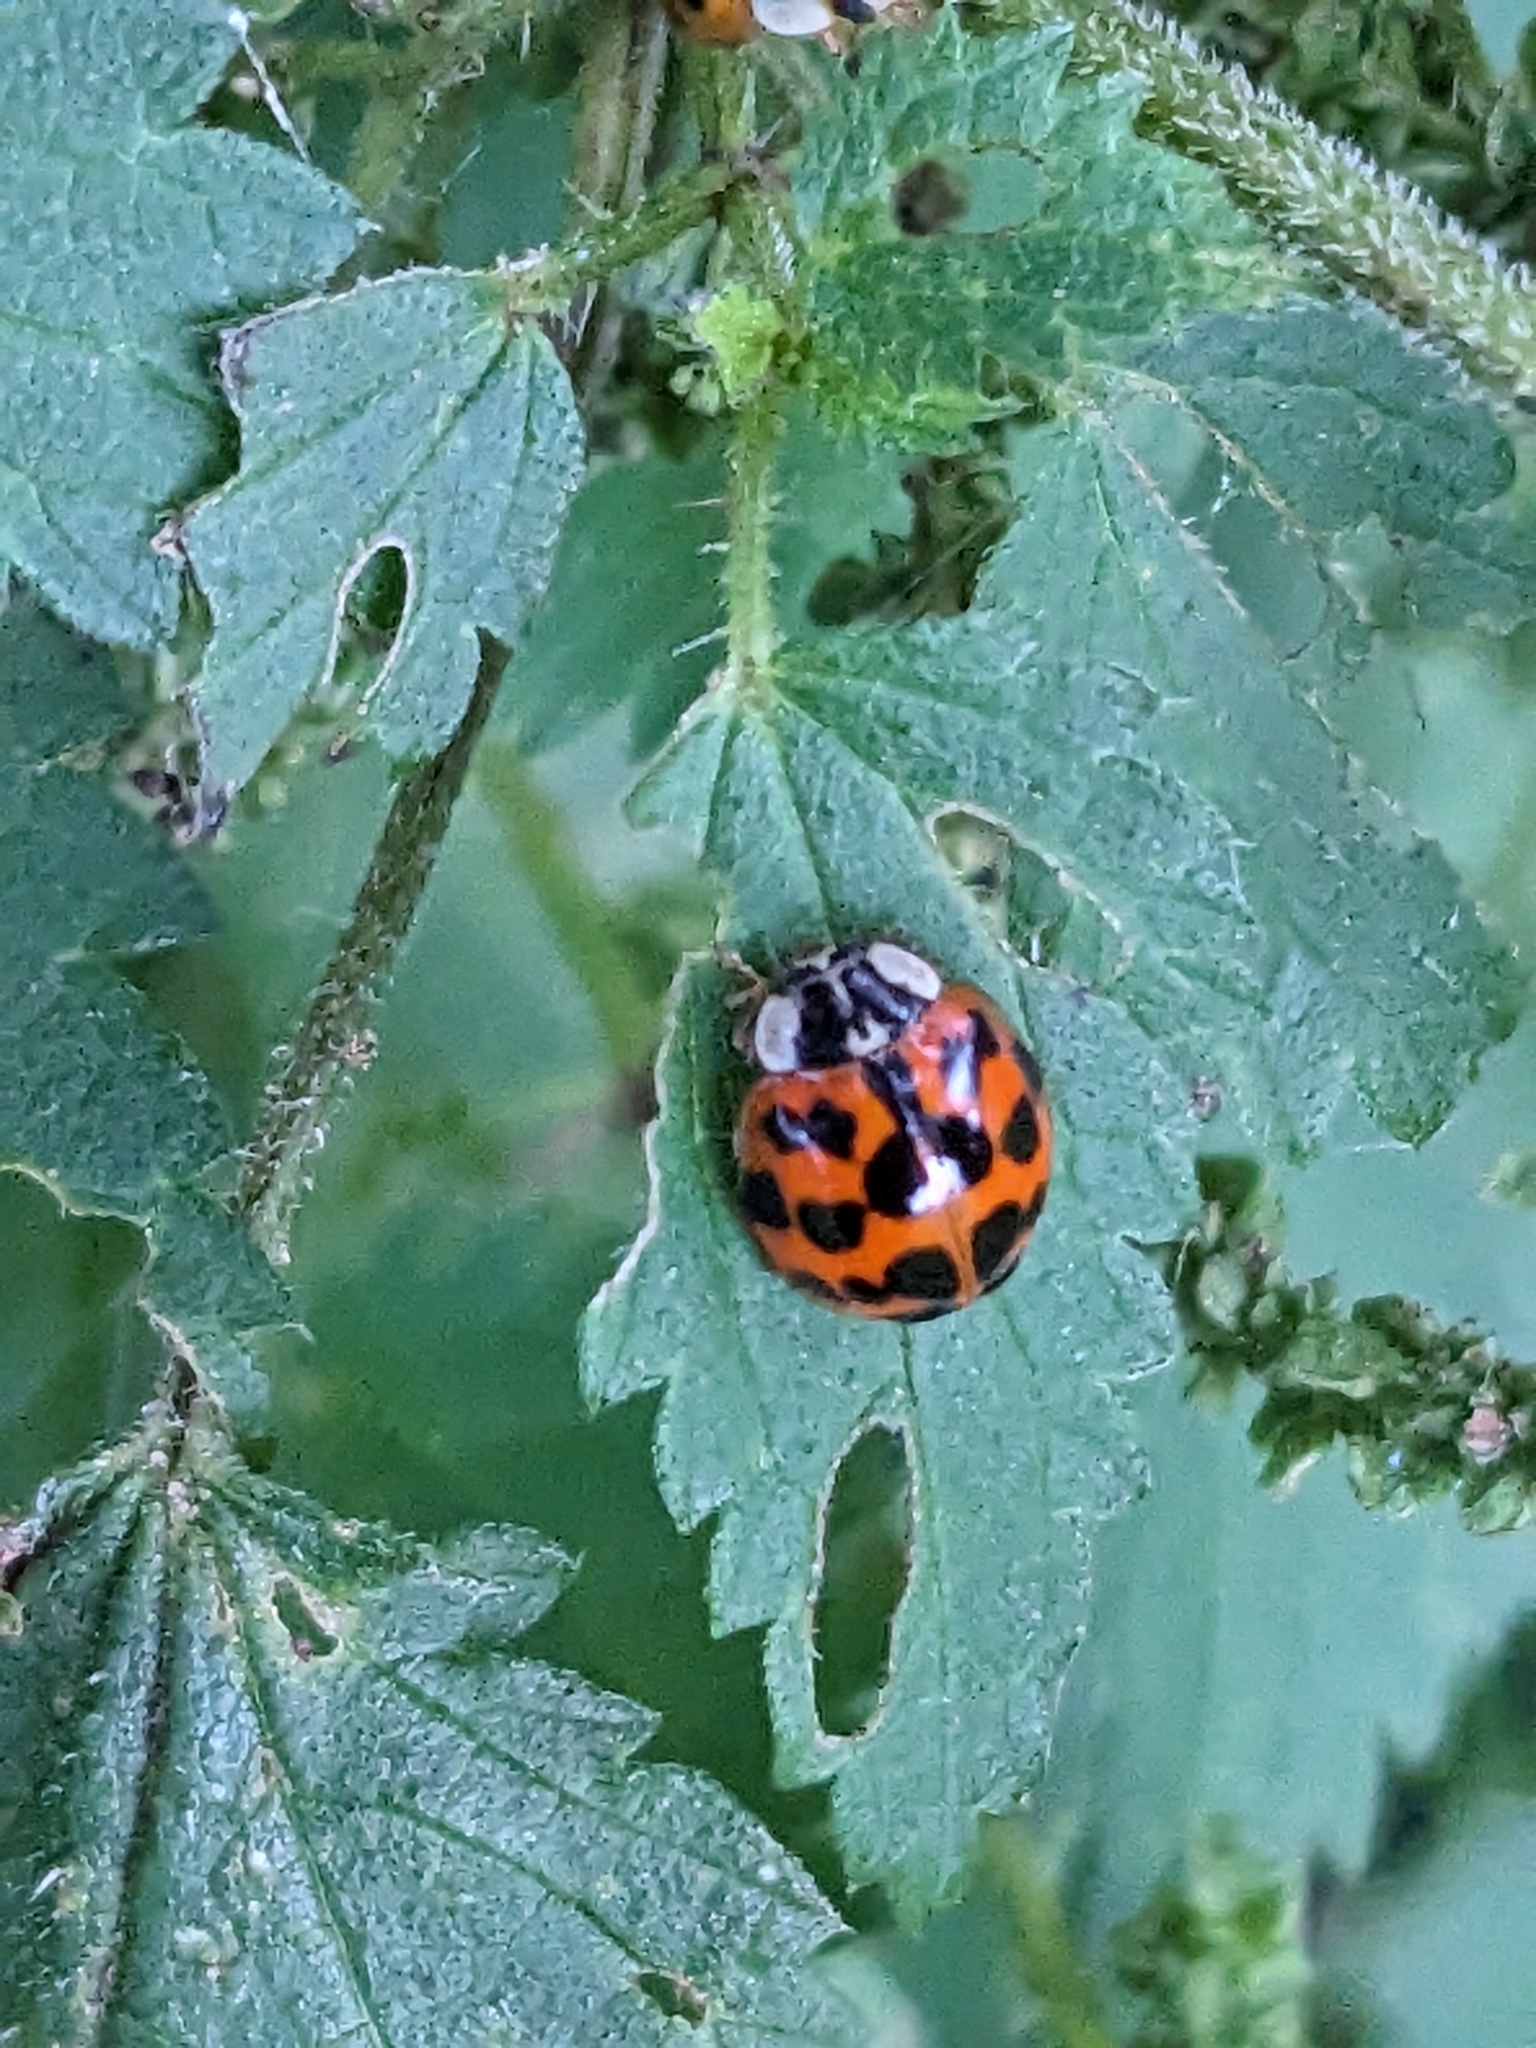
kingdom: Animalia
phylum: Arthropoda
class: Insecta
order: Coleoptera
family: Coccinellidae
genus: Harmonia
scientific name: Harmonia axyridis
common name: Harlequin ladybird
